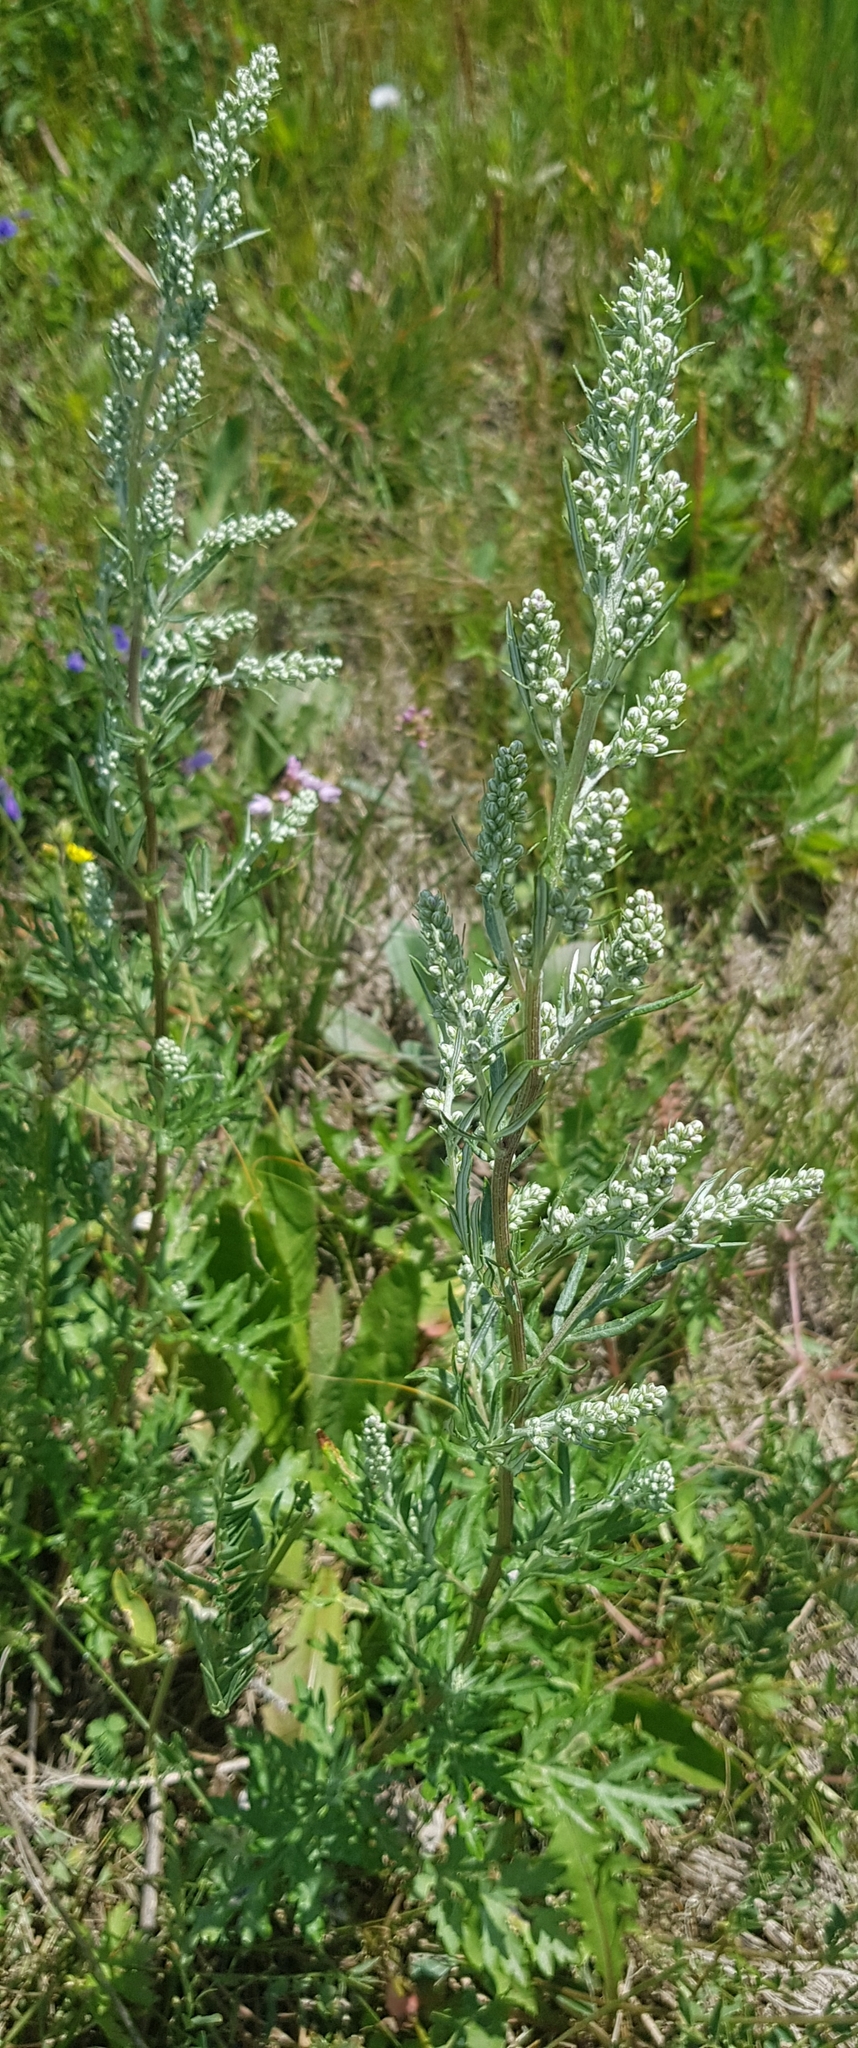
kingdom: Plantae
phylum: Tracheophyta
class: Magnoliopsida
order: Asterales
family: Asteraceae
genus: Artemisia
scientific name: Artemisia vulgaris
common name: Mugwort
